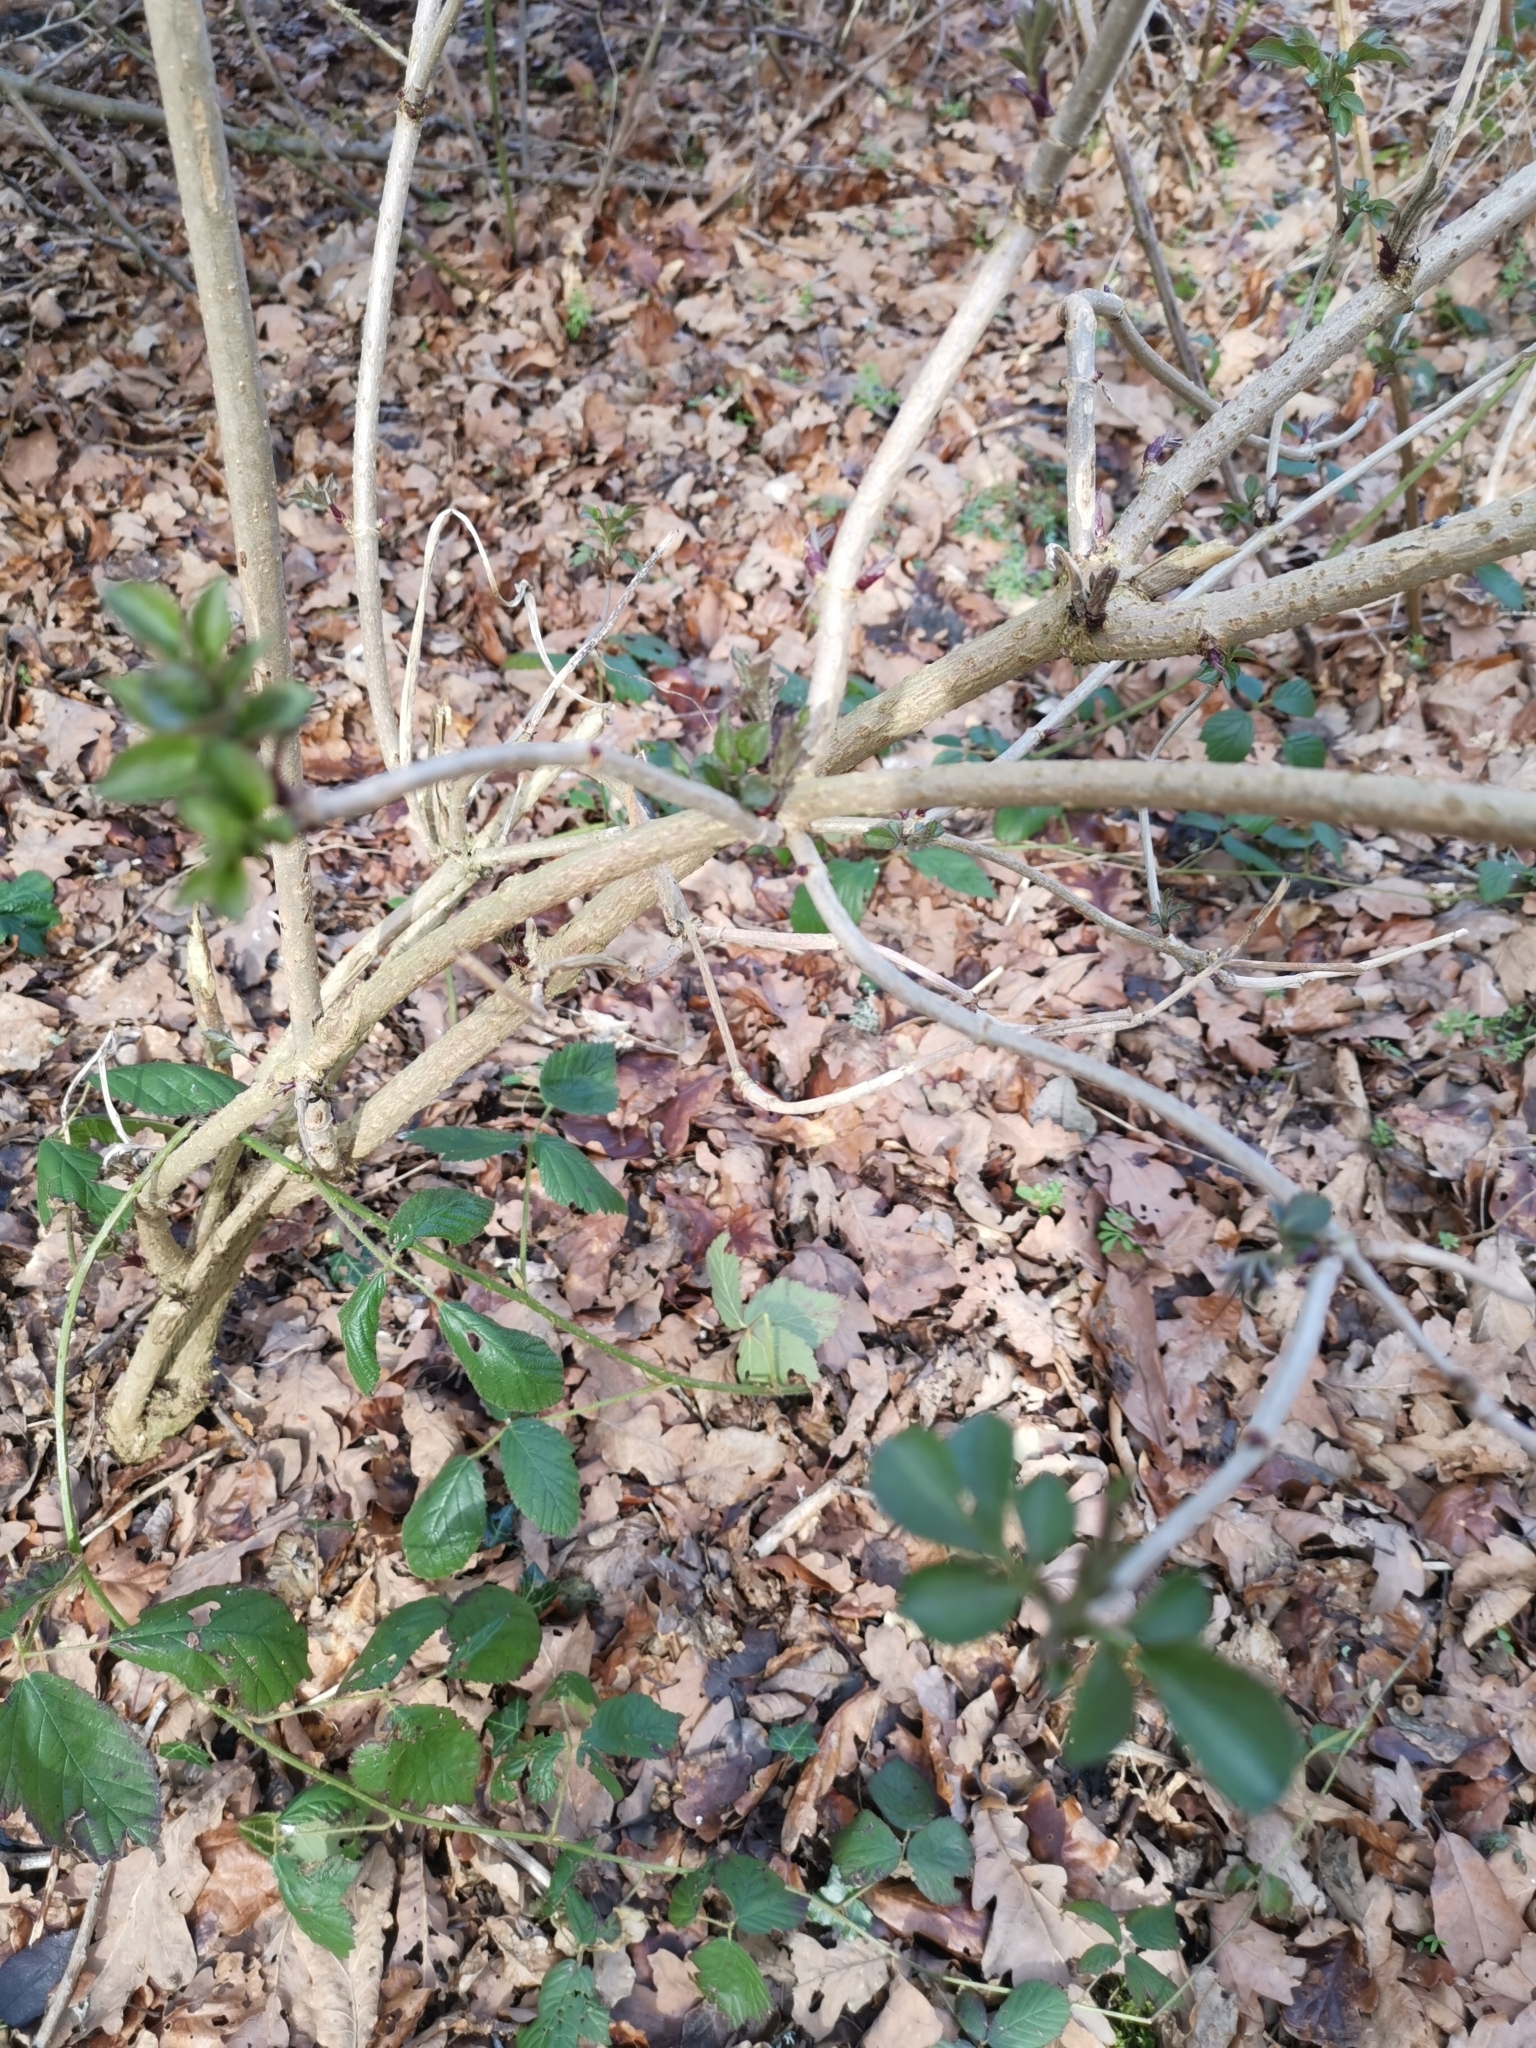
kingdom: Plantae
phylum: Tracheophyta
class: Magnoliopsida
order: Dipsacales
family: Viburnaceae
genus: Sambucus
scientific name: Sambucus nigra
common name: Elder
